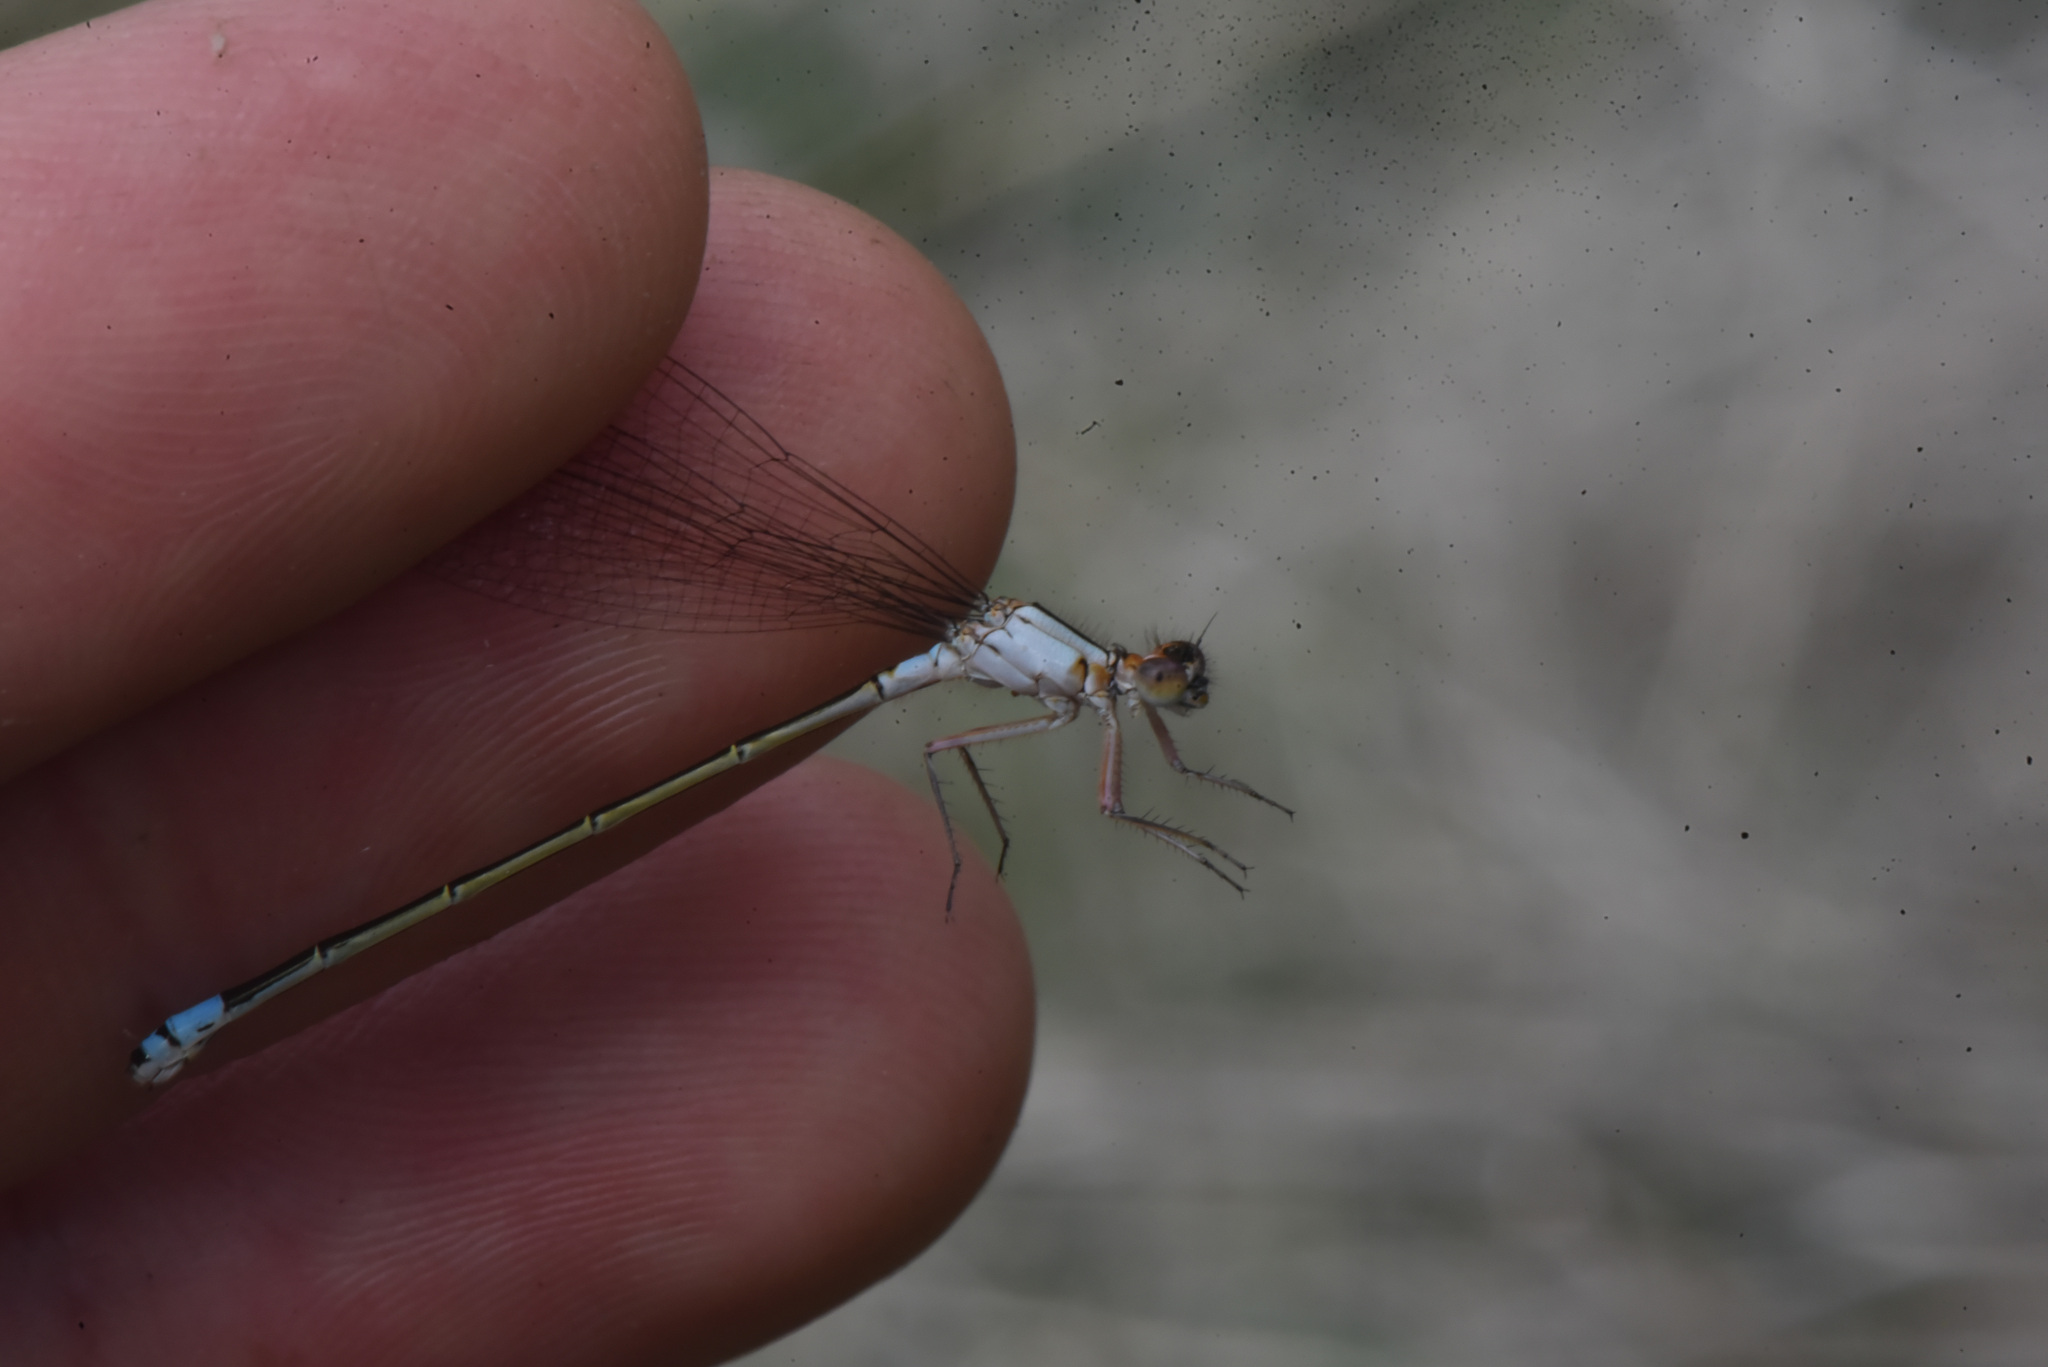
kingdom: Animalia
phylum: Arthropoda
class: Insecta
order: Odonata
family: Coenagrionidae
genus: Ischnura
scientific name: Ischnura cervula
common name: Pacific forktail
